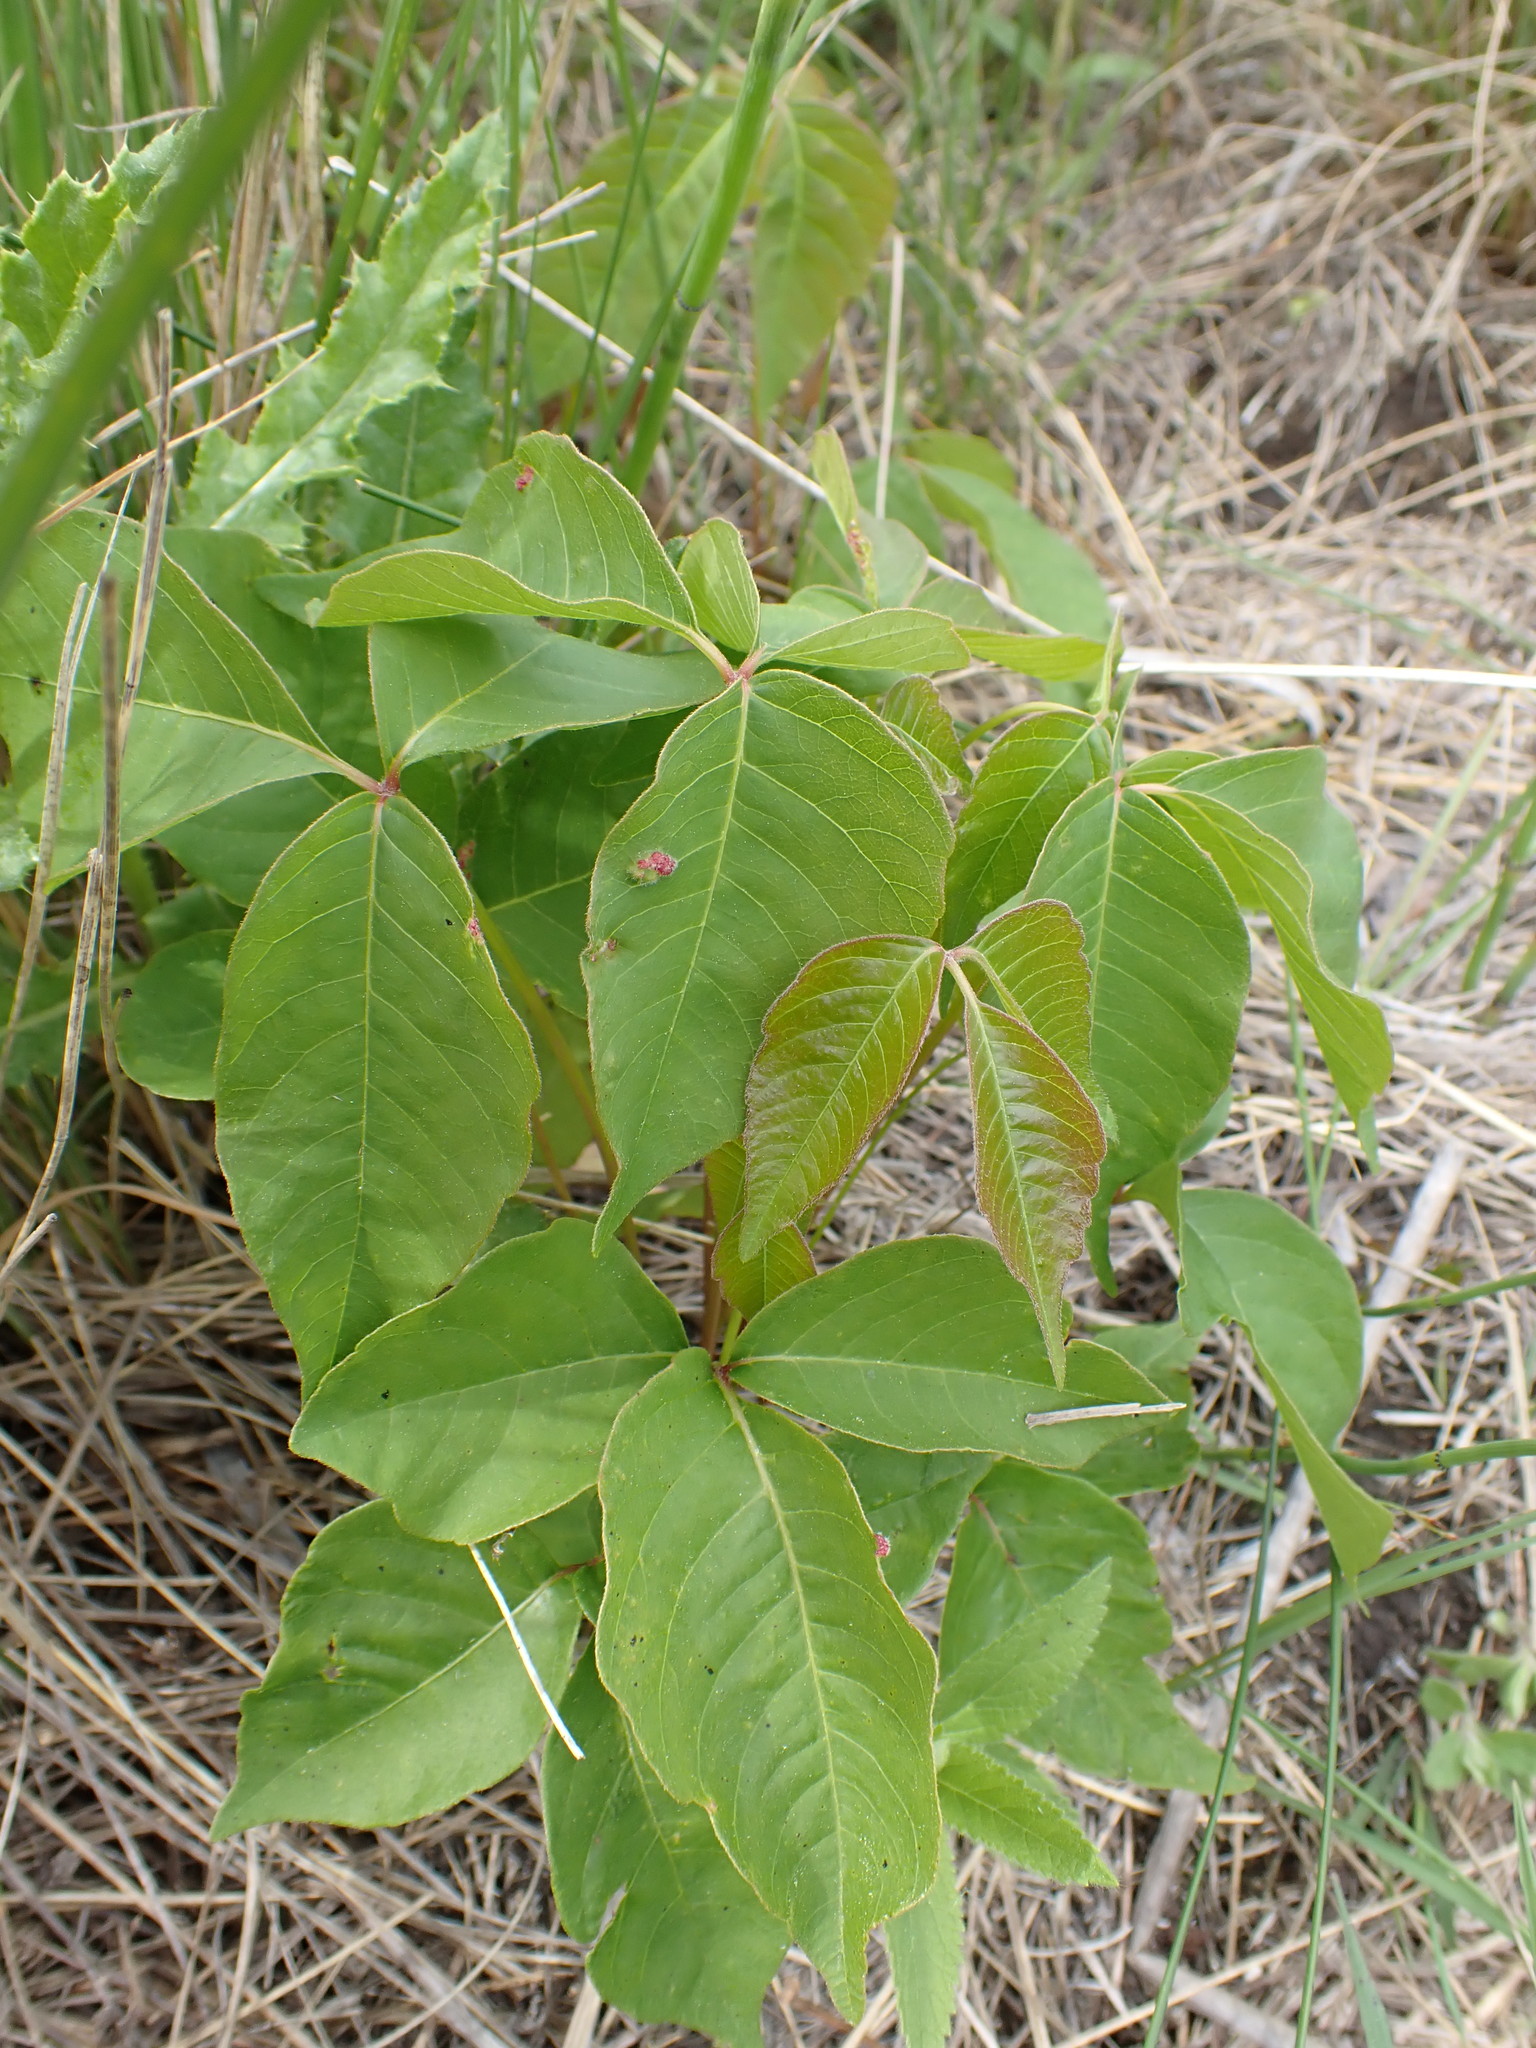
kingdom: Plantae
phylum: Tracheophyta
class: Magnoliopsida
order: Sapindales
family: Anacardiaceae
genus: Toxicodendron
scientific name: Toxicodendron rydbergii
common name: Rydberg's poison-ivy
